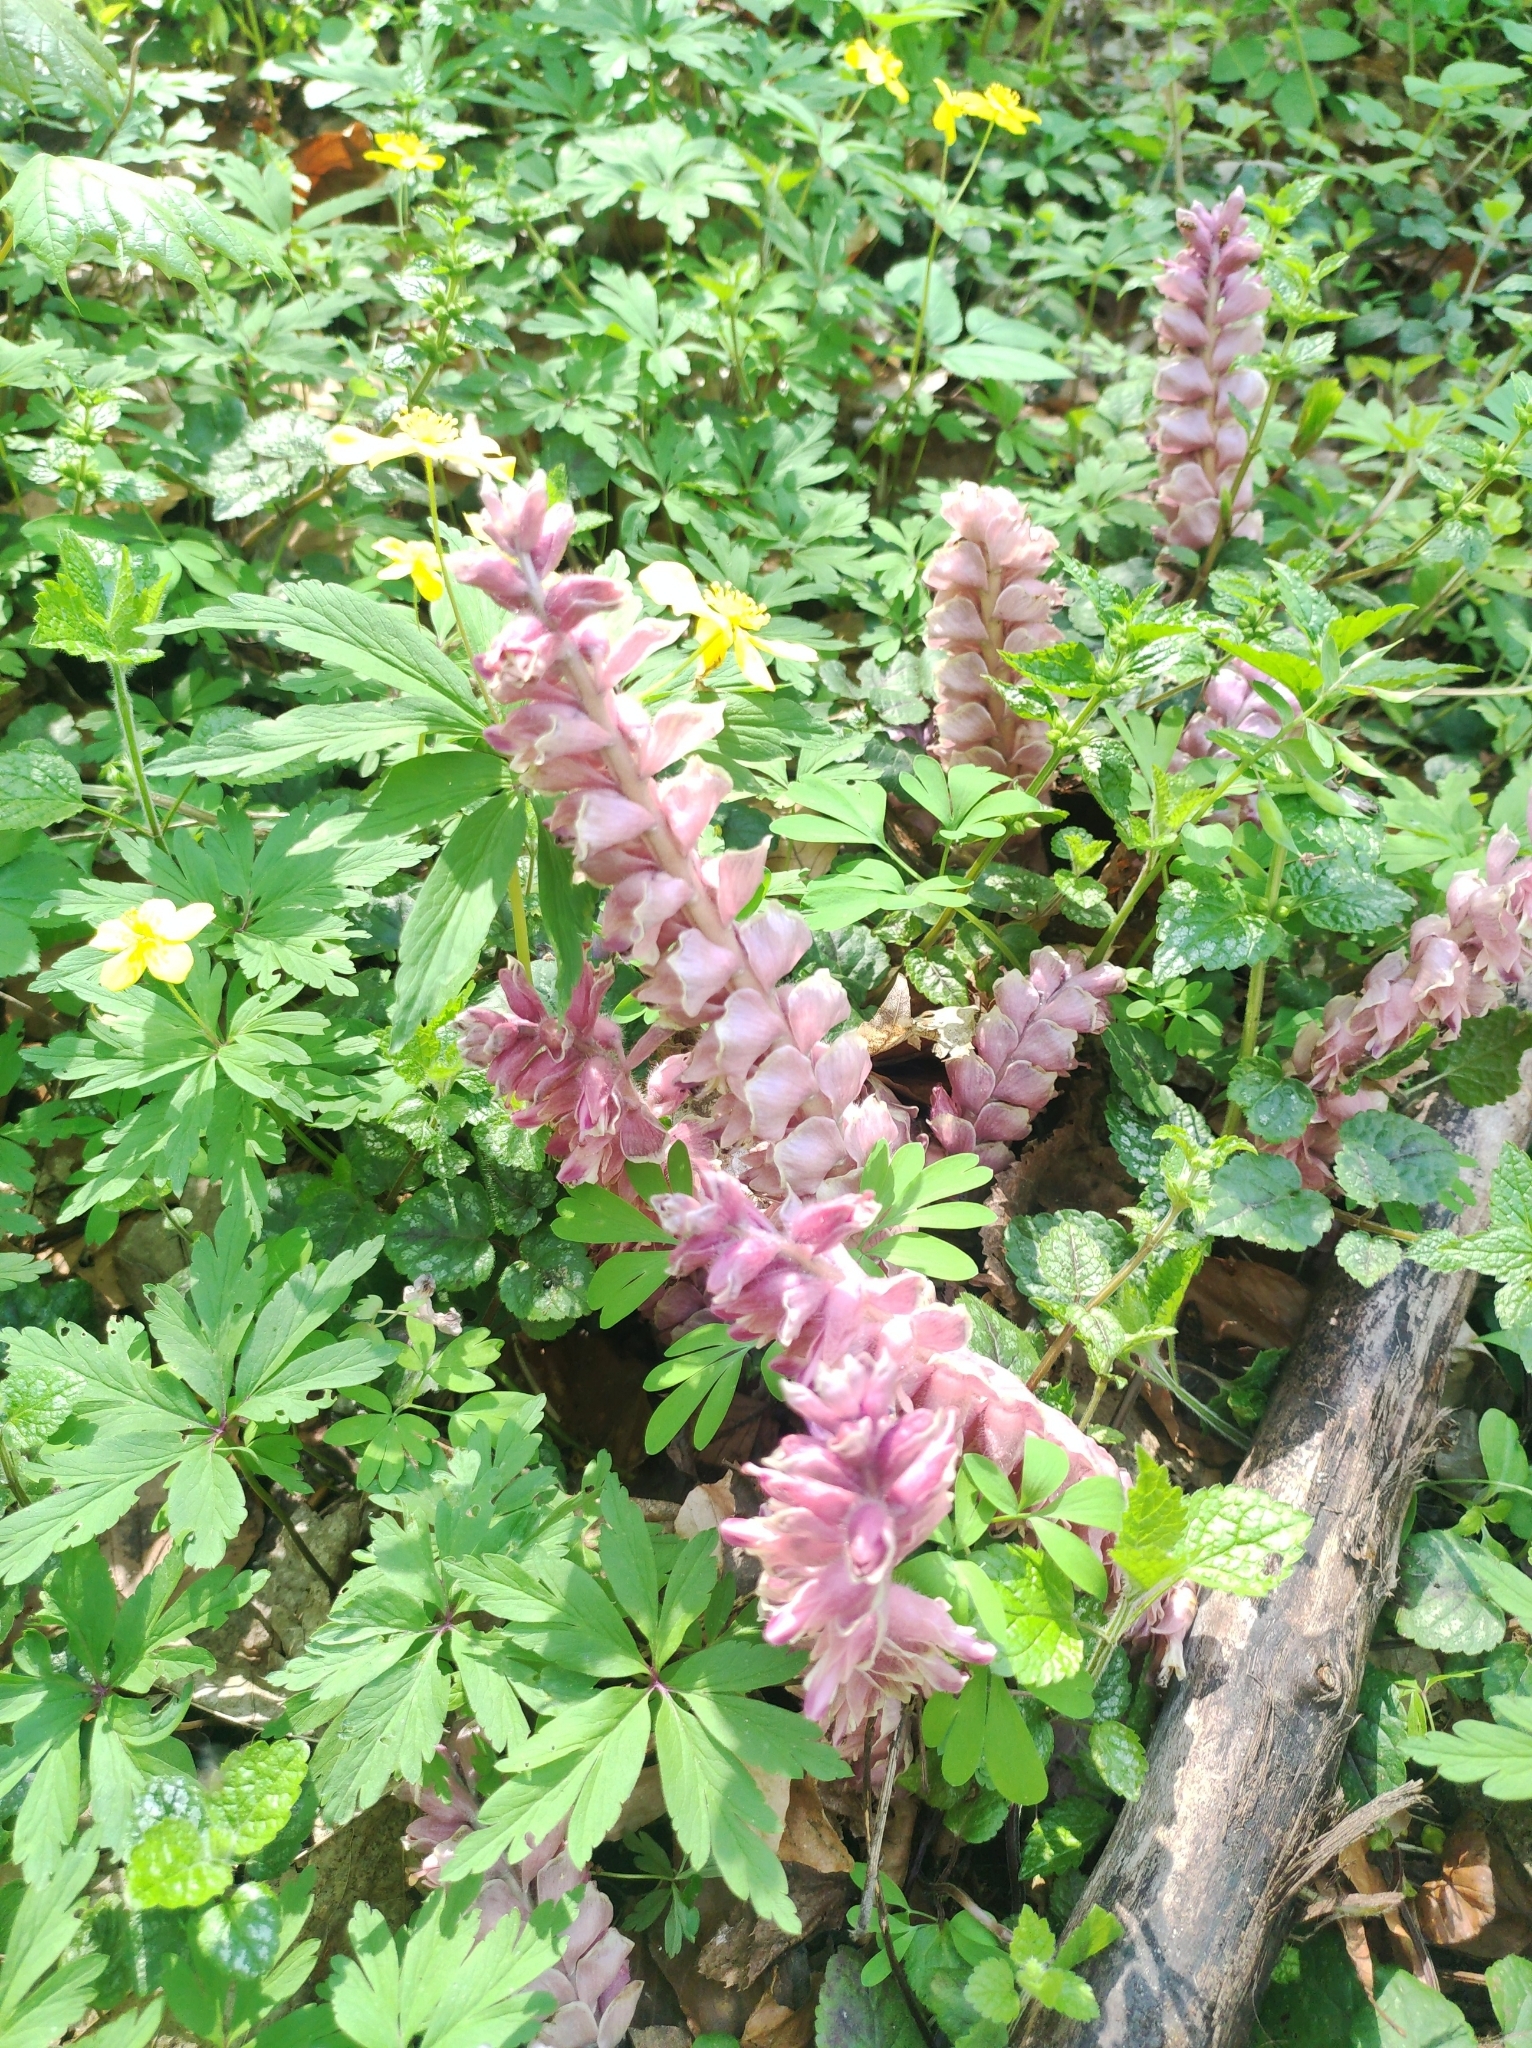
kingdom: Plantae
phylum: Tracheophyta
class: Magnoliopsida
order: Lamiales
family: Orobanchaceae
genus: Lathraea
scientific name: Lathraea squamaria
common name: Toothwort
